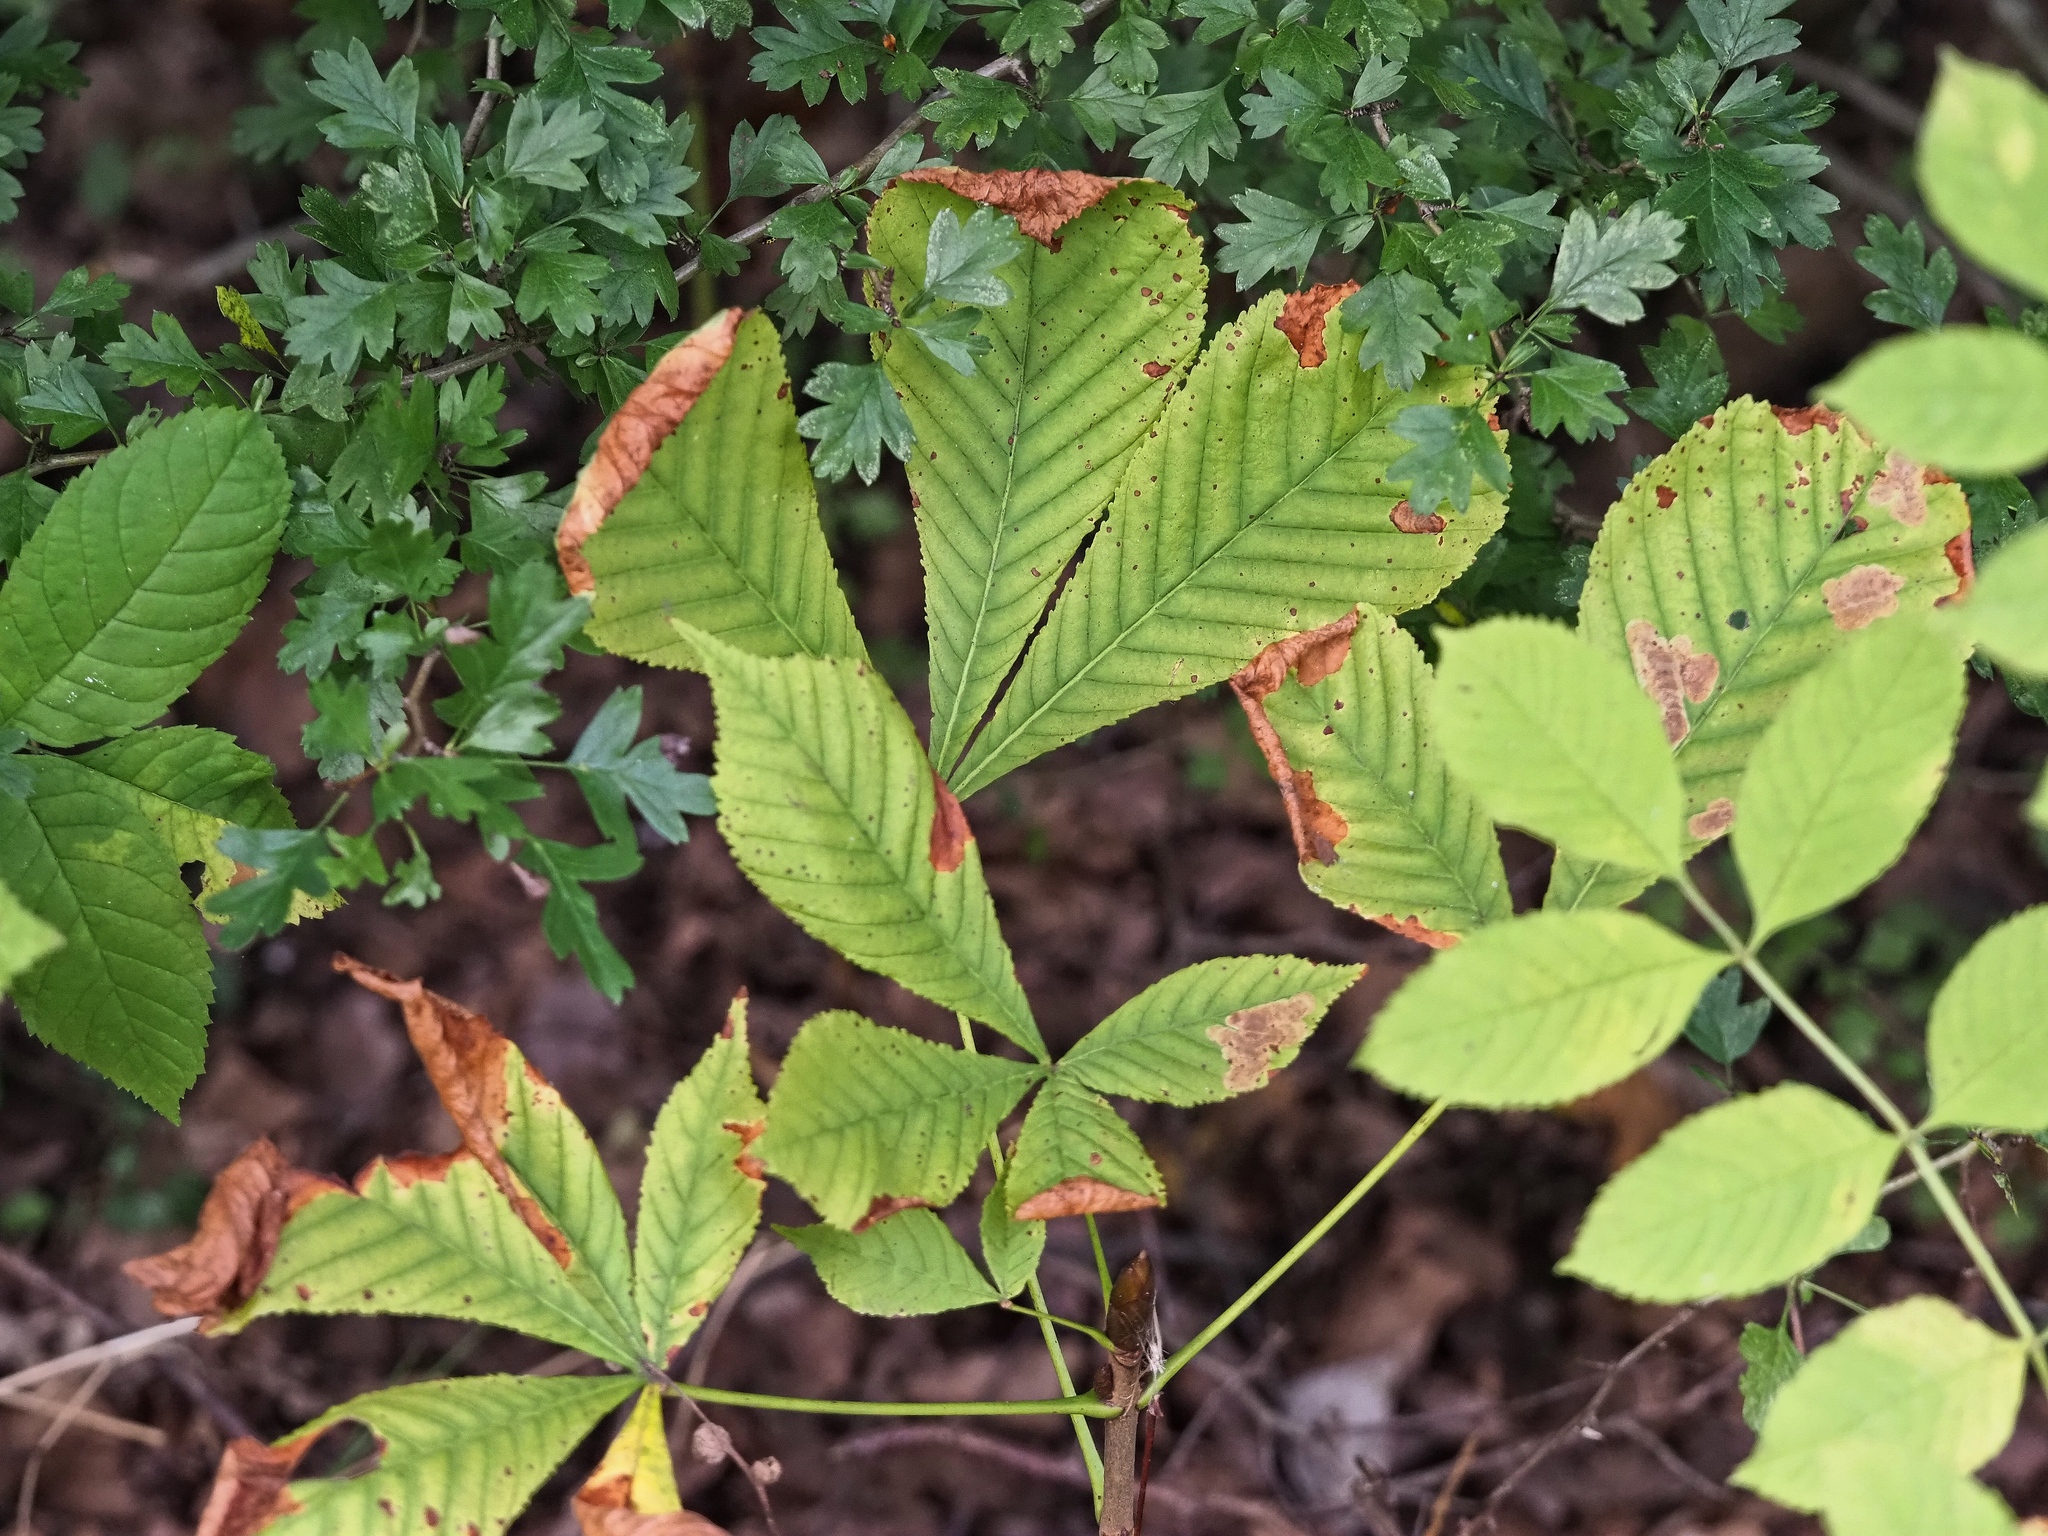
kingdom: Plantae
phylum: Tracheophyta
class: Magnoliopsida
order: Sapindales
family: Sapindaceae
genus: Aesculus
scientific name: Aesculus hippocastanum
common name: Horse-chestnut
